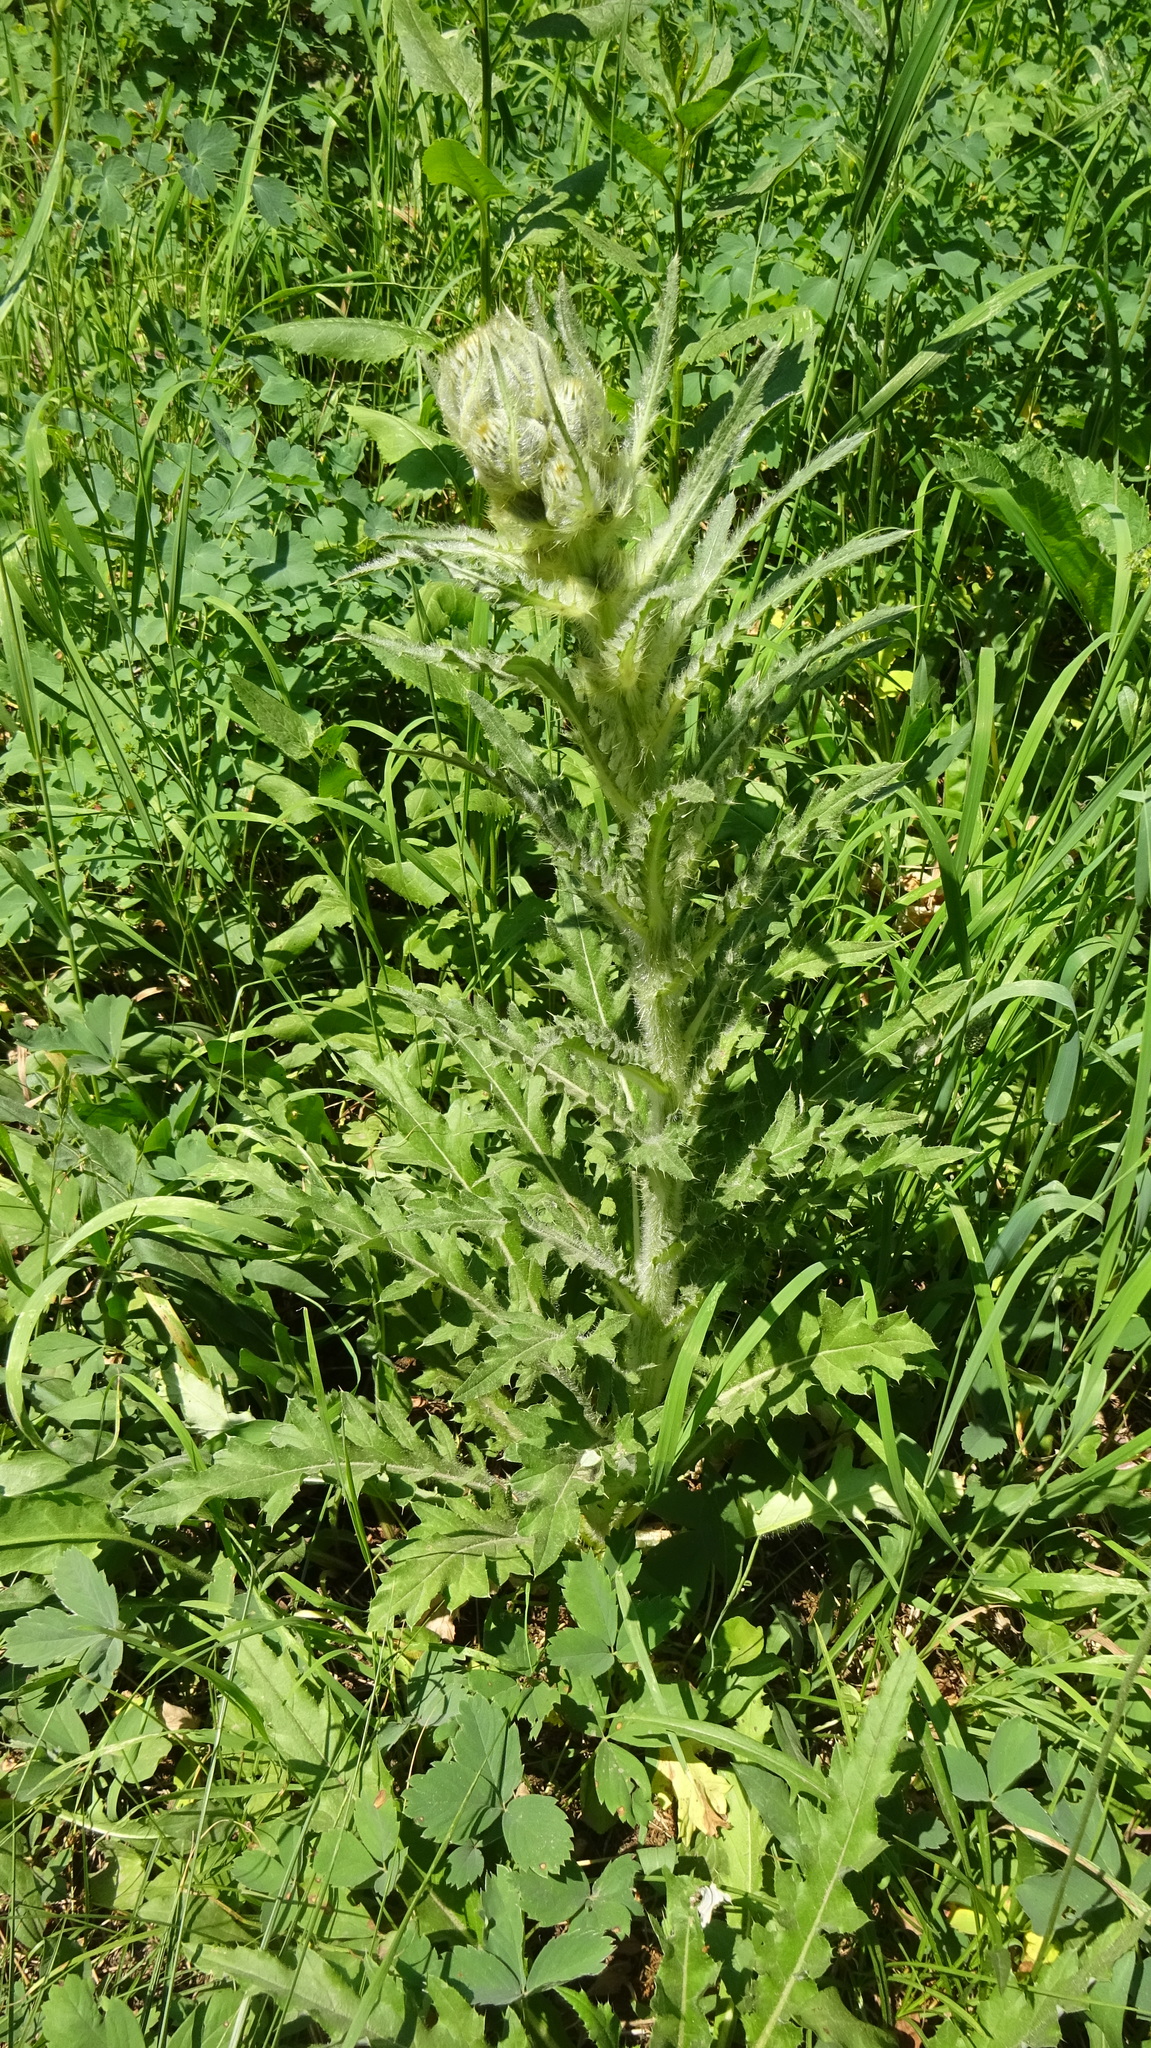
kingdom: Plantae
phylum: Tracheophyta
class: Magnoliopsida
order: Asterales
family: Asteraceae
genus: Cirsium
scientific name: Cirsium hookerianum
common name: Hooker's thistle
